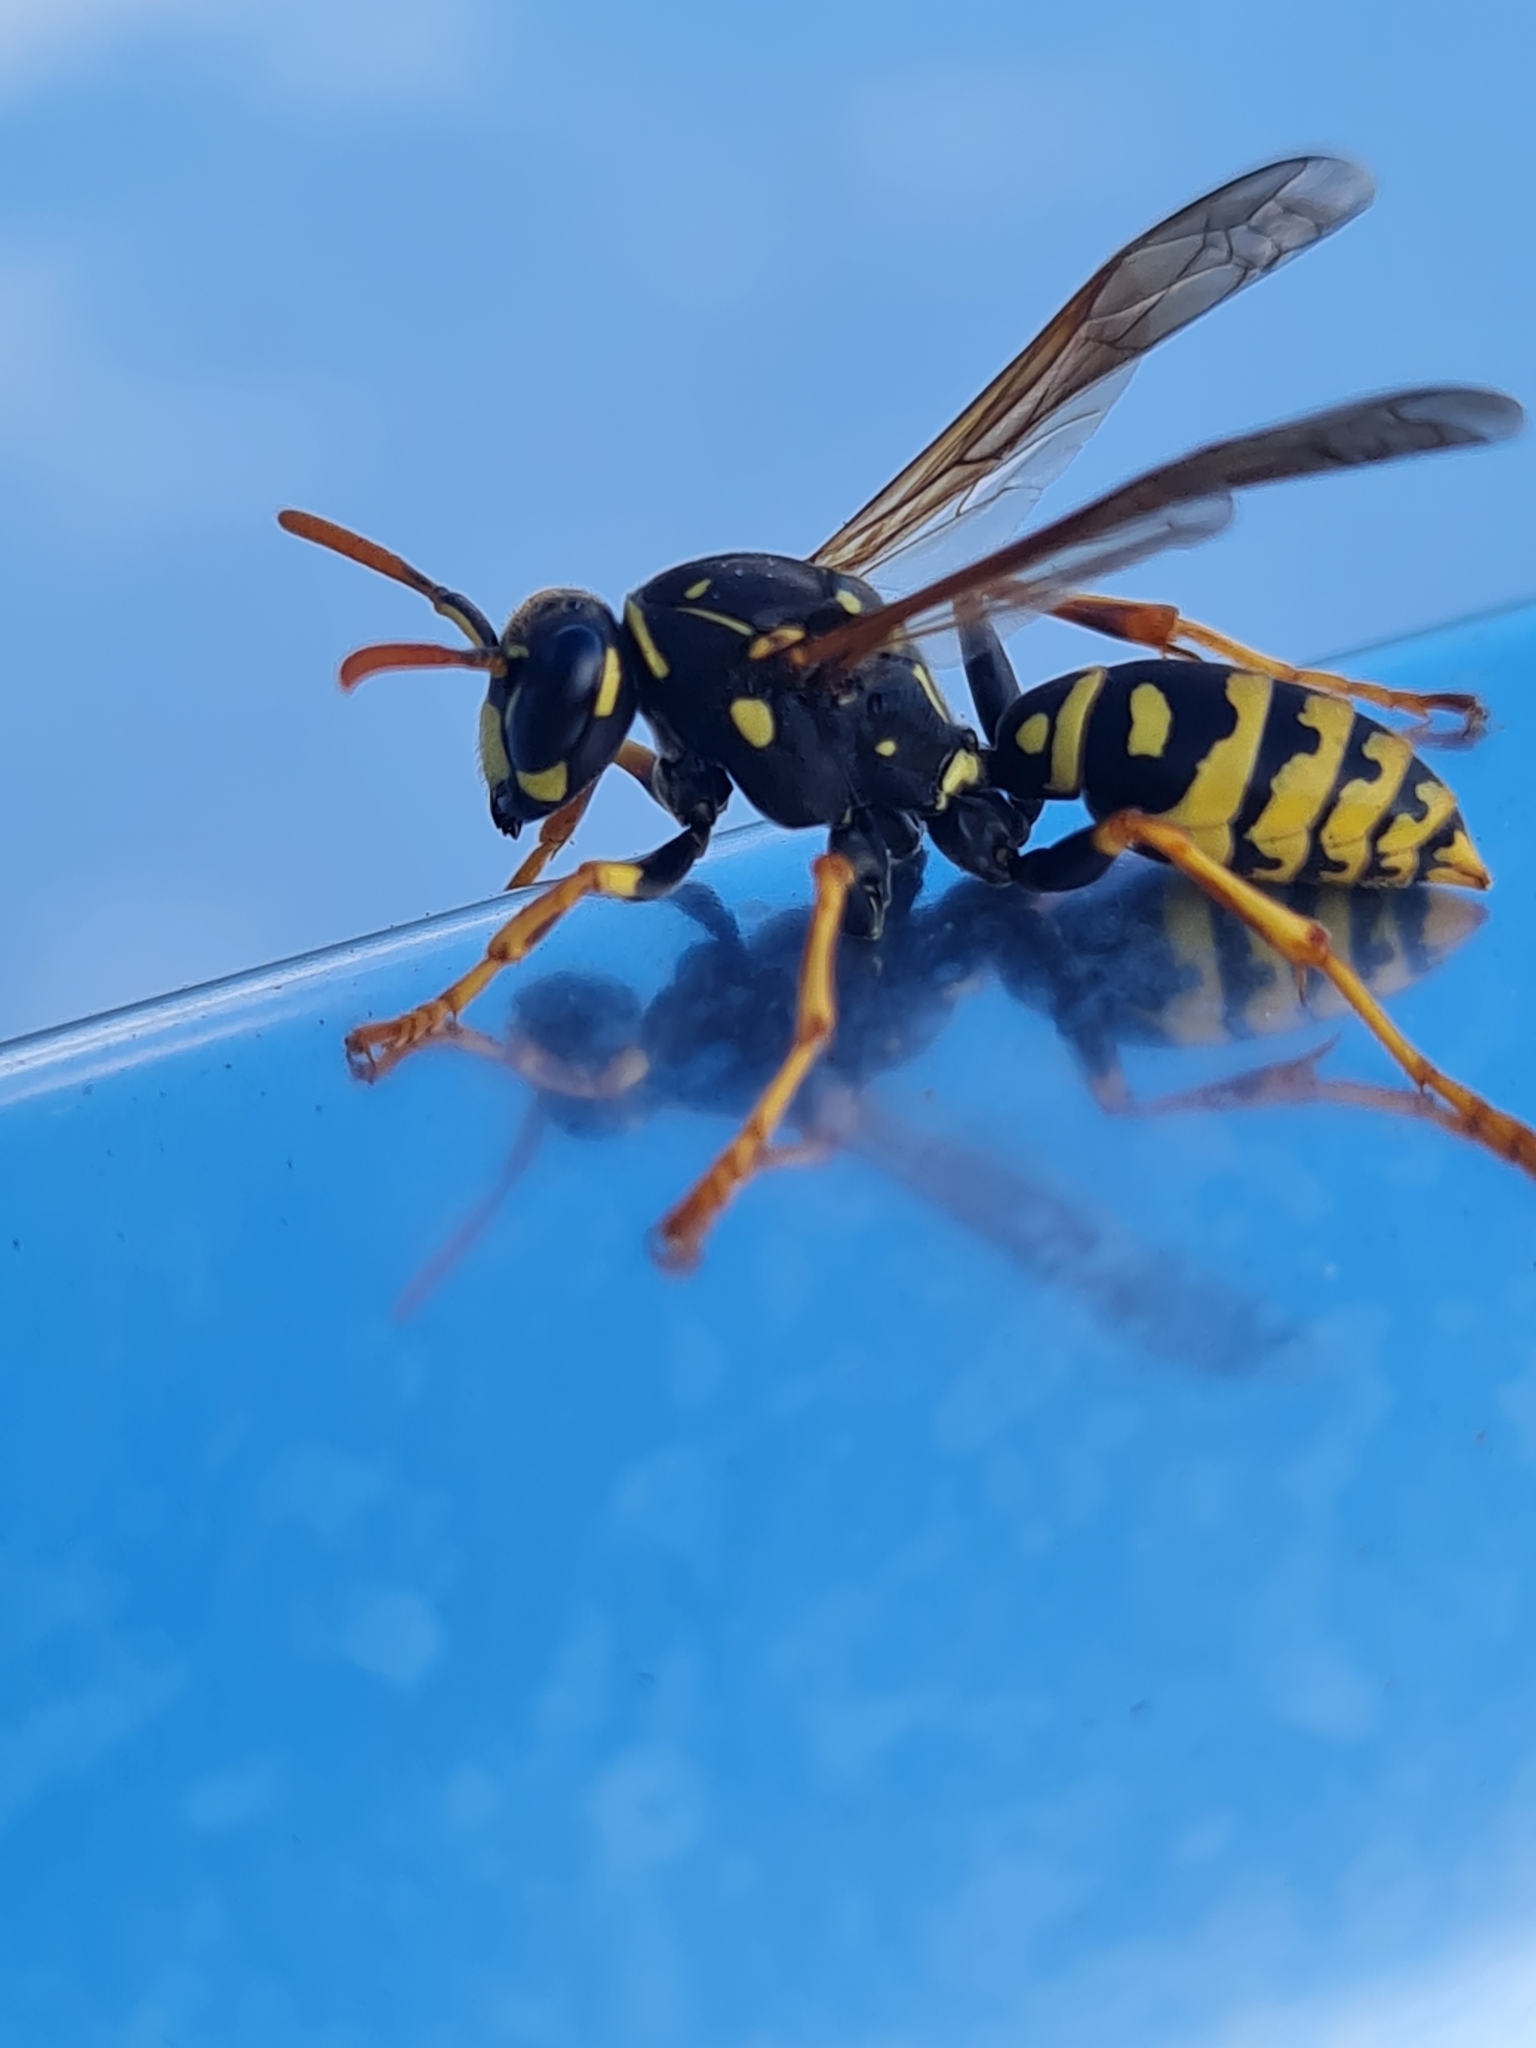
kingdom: Animalia
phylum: Arthropoda
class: Insecta
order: Hymenoptera
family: Eumenidae
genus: Polistes
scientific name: Polistes dominula
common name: Paper wasp
